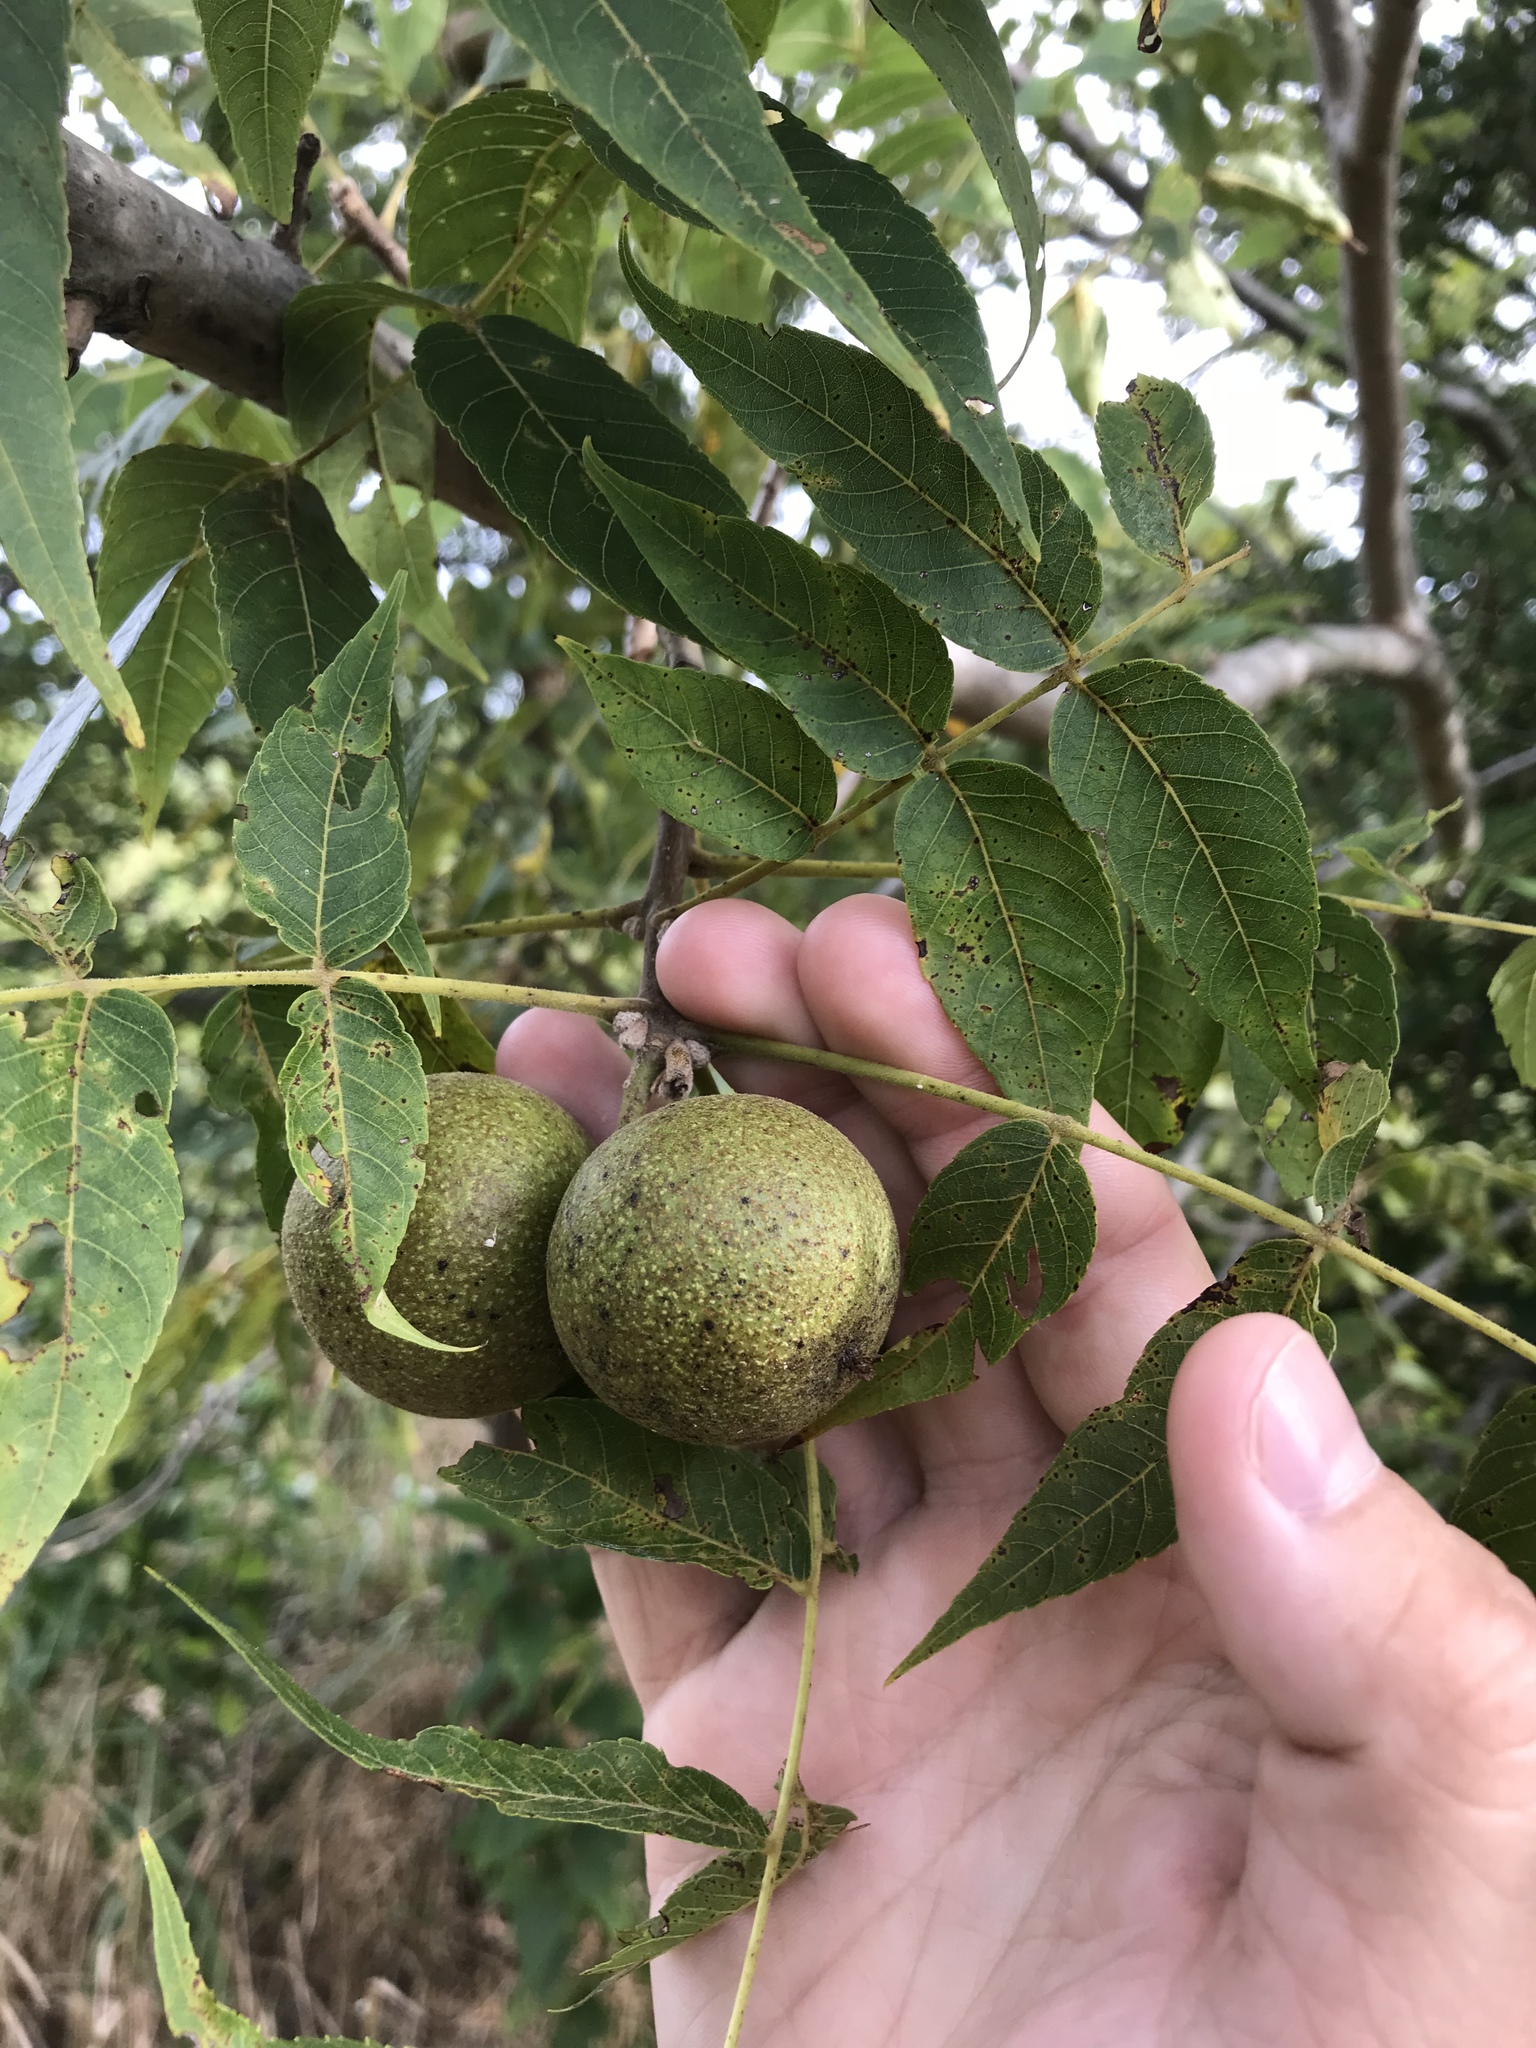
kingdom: Plantae
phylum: Tracheophyta
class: Magnoliopsida
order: Fagales
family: Juglandaceae
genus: Juglans
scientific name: Juglans major
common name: Arizona walnut
